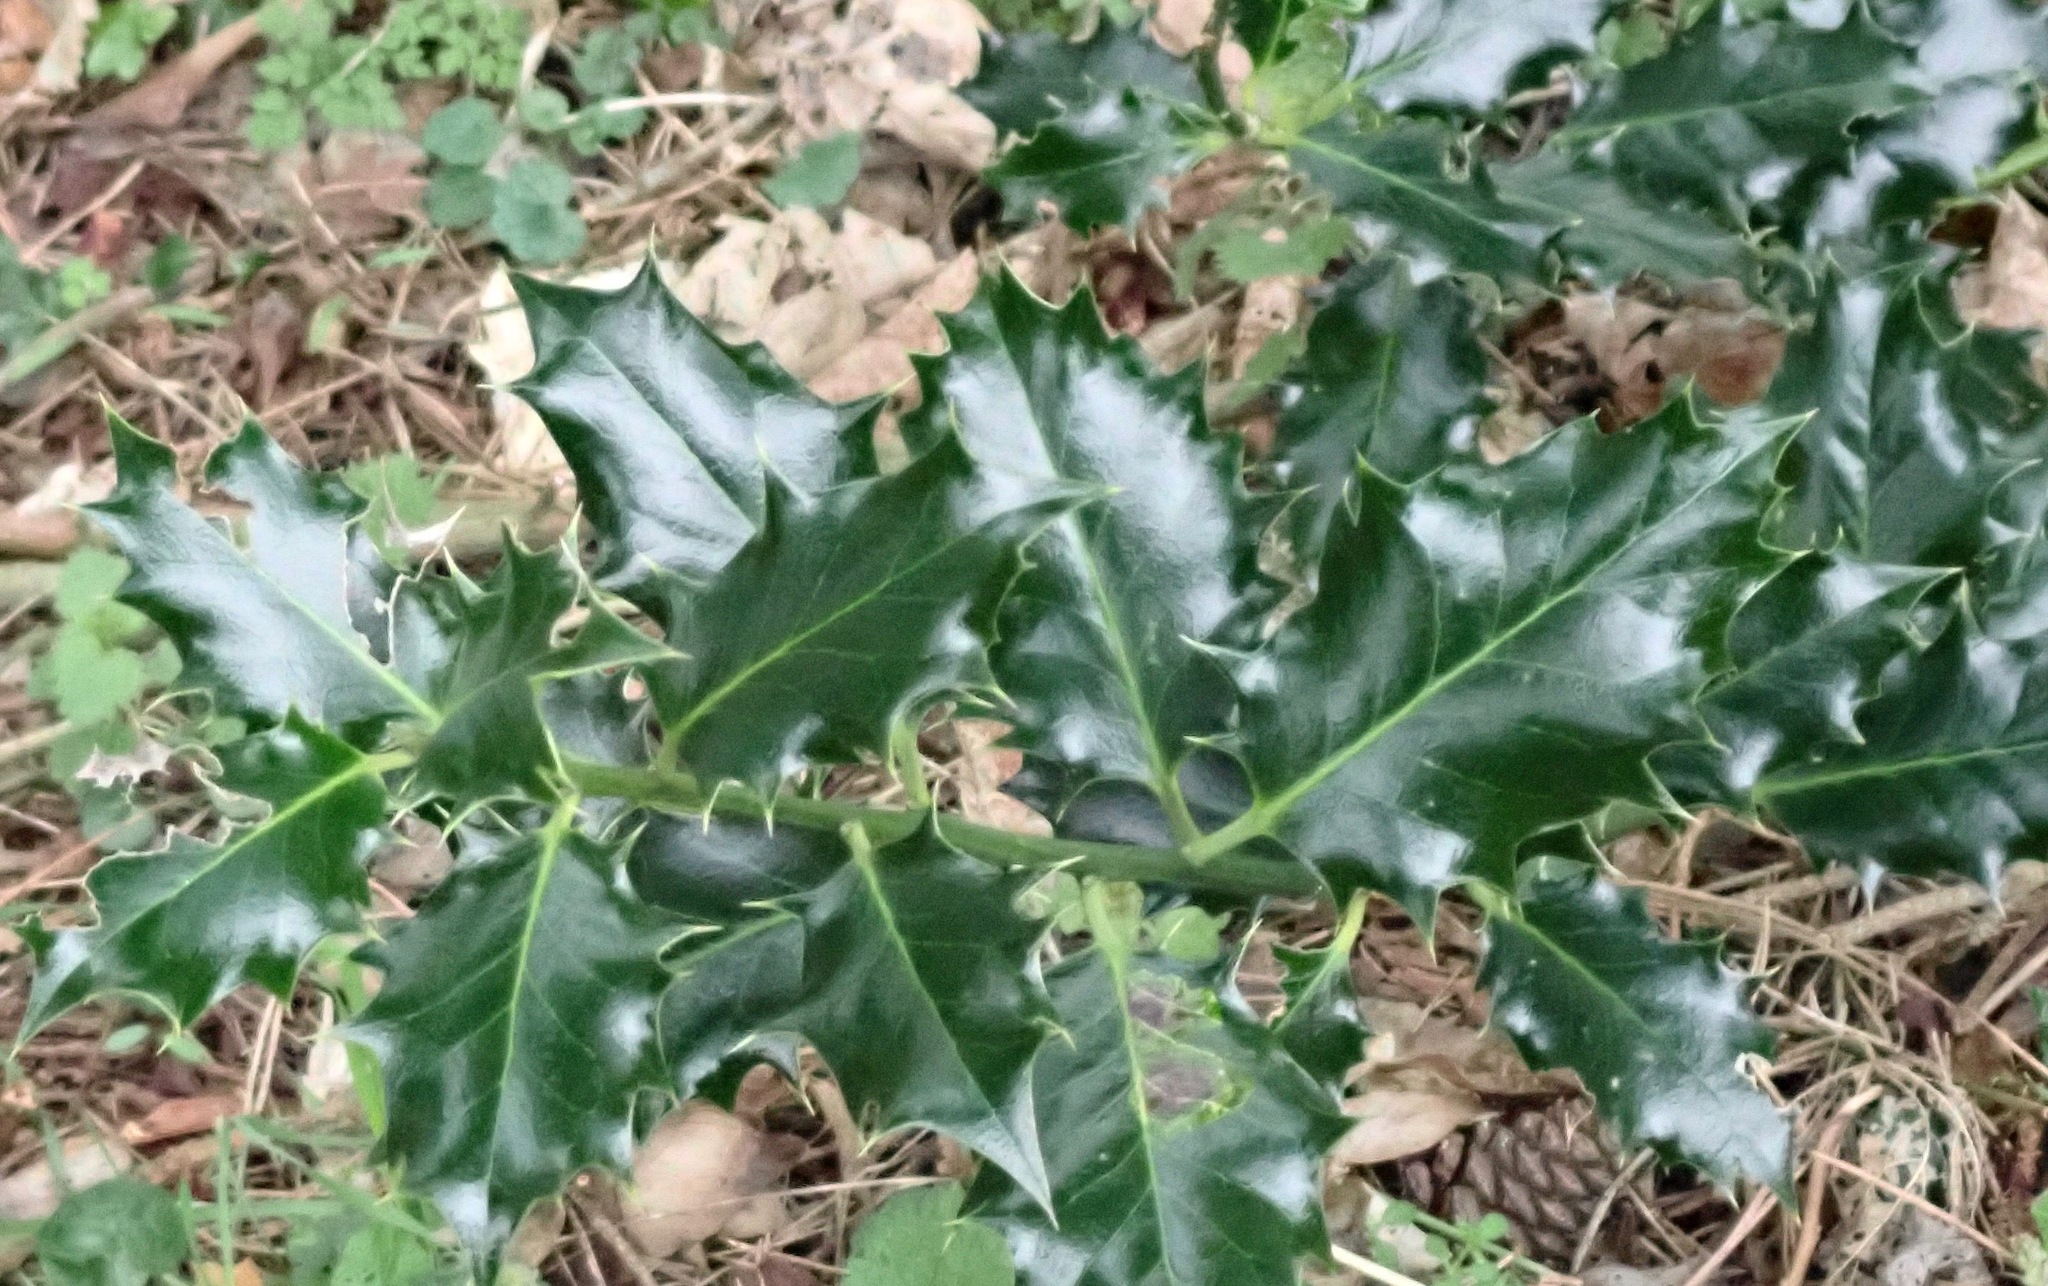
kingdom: Plantae
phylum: Tracheophyta
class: Magnoliopsida
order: Aquifoliales
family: Aquifoliaceae
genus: Ilex
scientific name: Ilex aquifolium
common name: English holly
